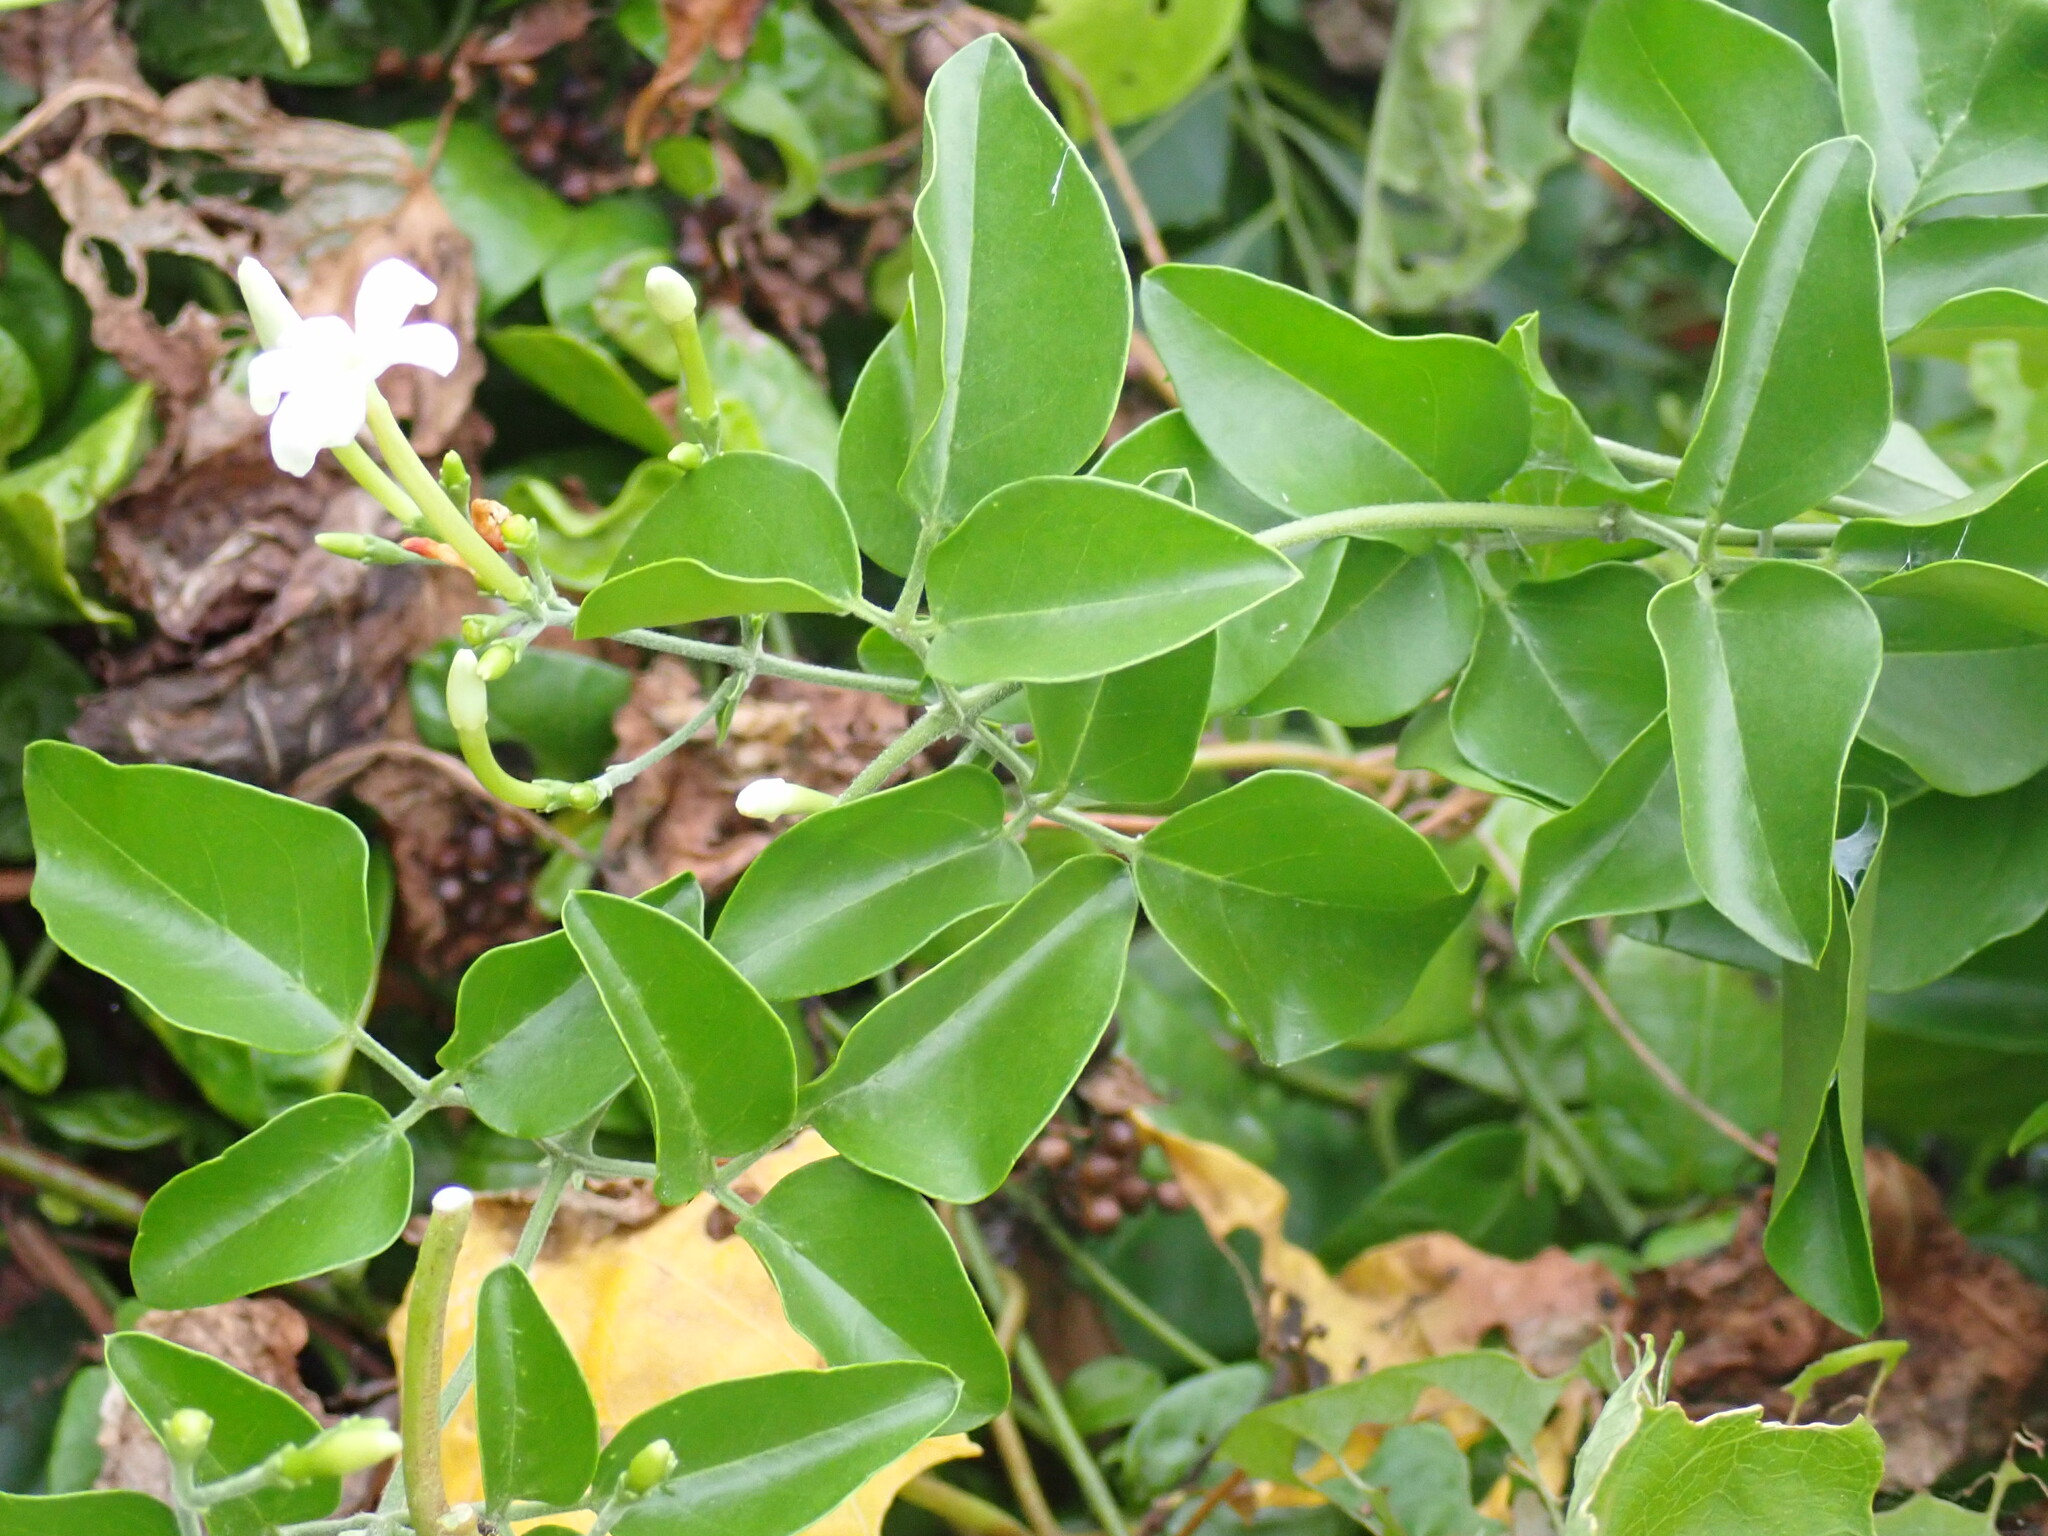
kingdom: Plantae
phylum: Tracheophyta
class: Magnoliopsida
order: Lamiales
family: Oleaceae
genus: Jasminum
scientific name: Jasminum fluminense
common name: Brazilian jasmine
